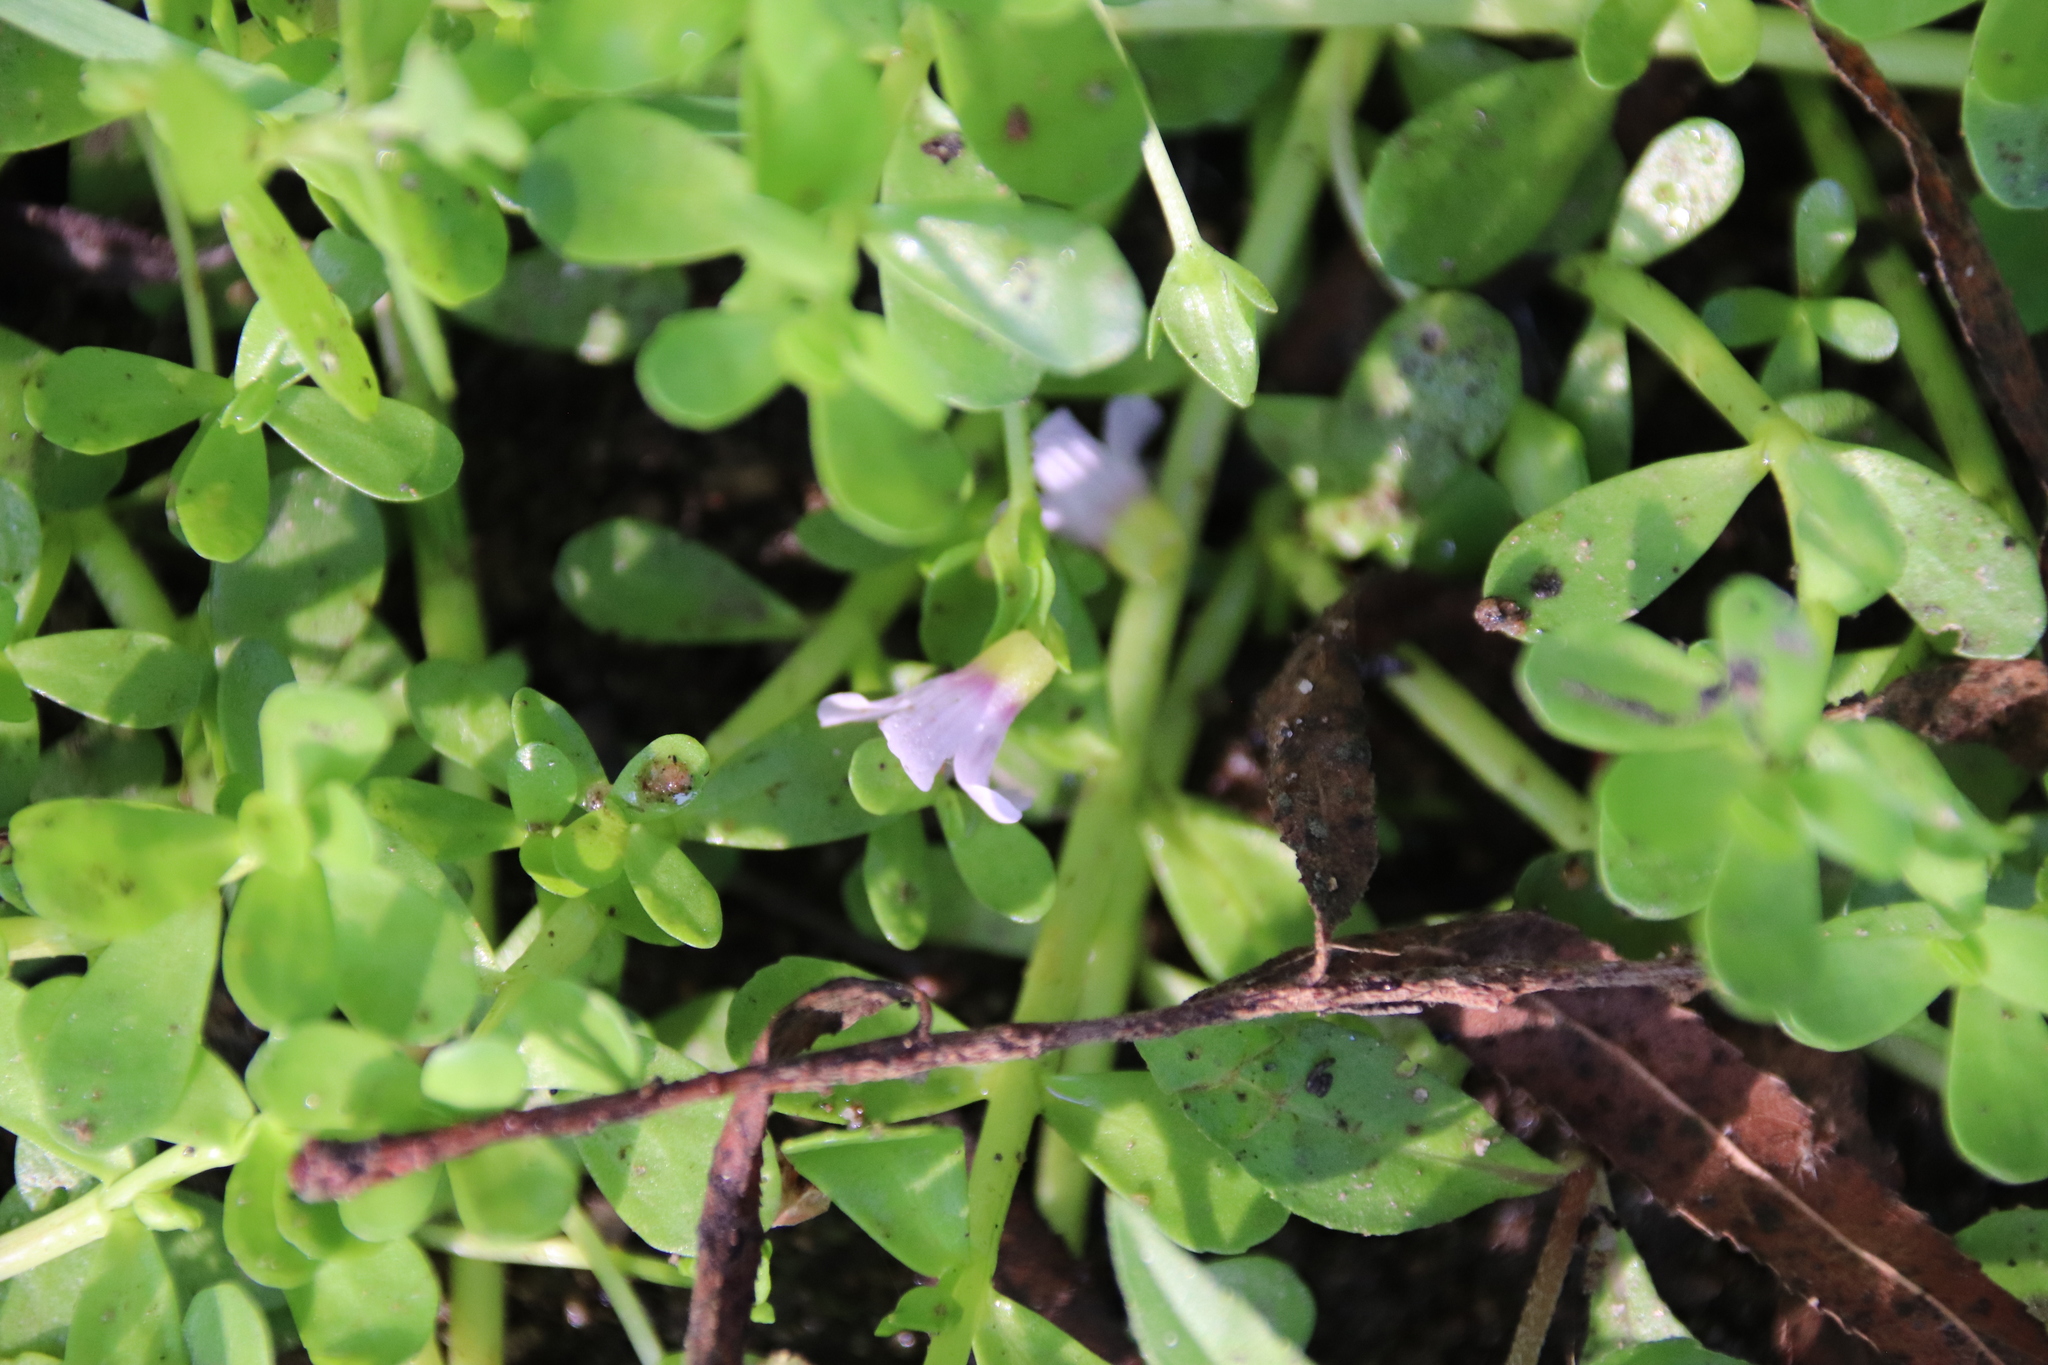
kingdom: Plantae
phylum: Tracheophyta
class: Magnoliopsida
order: Lamiales
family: Plantaginaceae
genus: Bacopa
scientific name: Bacopa monnieri
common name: Indian-pennywort
